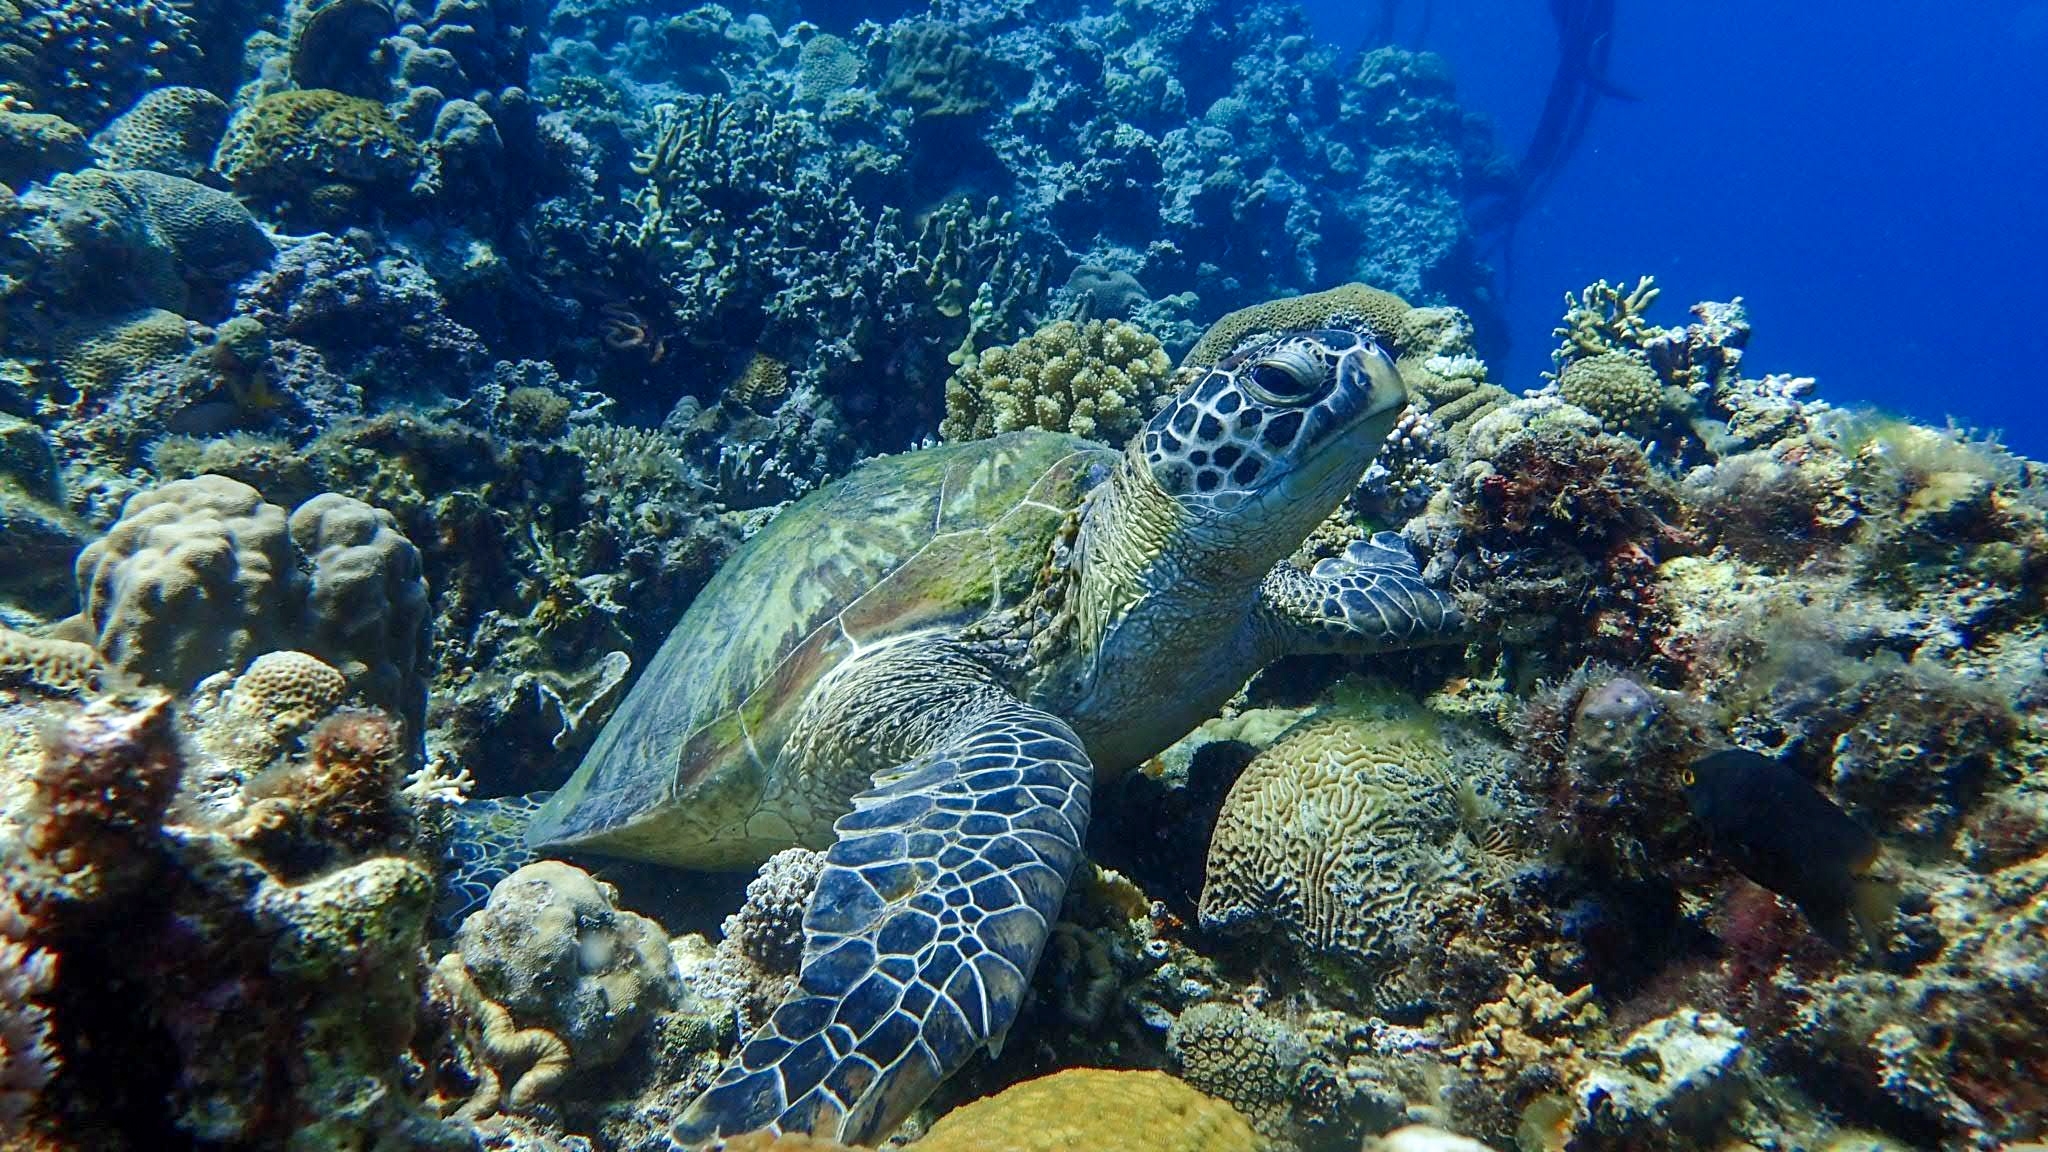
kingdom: Animalia
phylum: Chordata
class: Testudines
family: Cheloniidae
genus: Chelonia
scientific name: Chelonia mydas
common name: Green turtle
